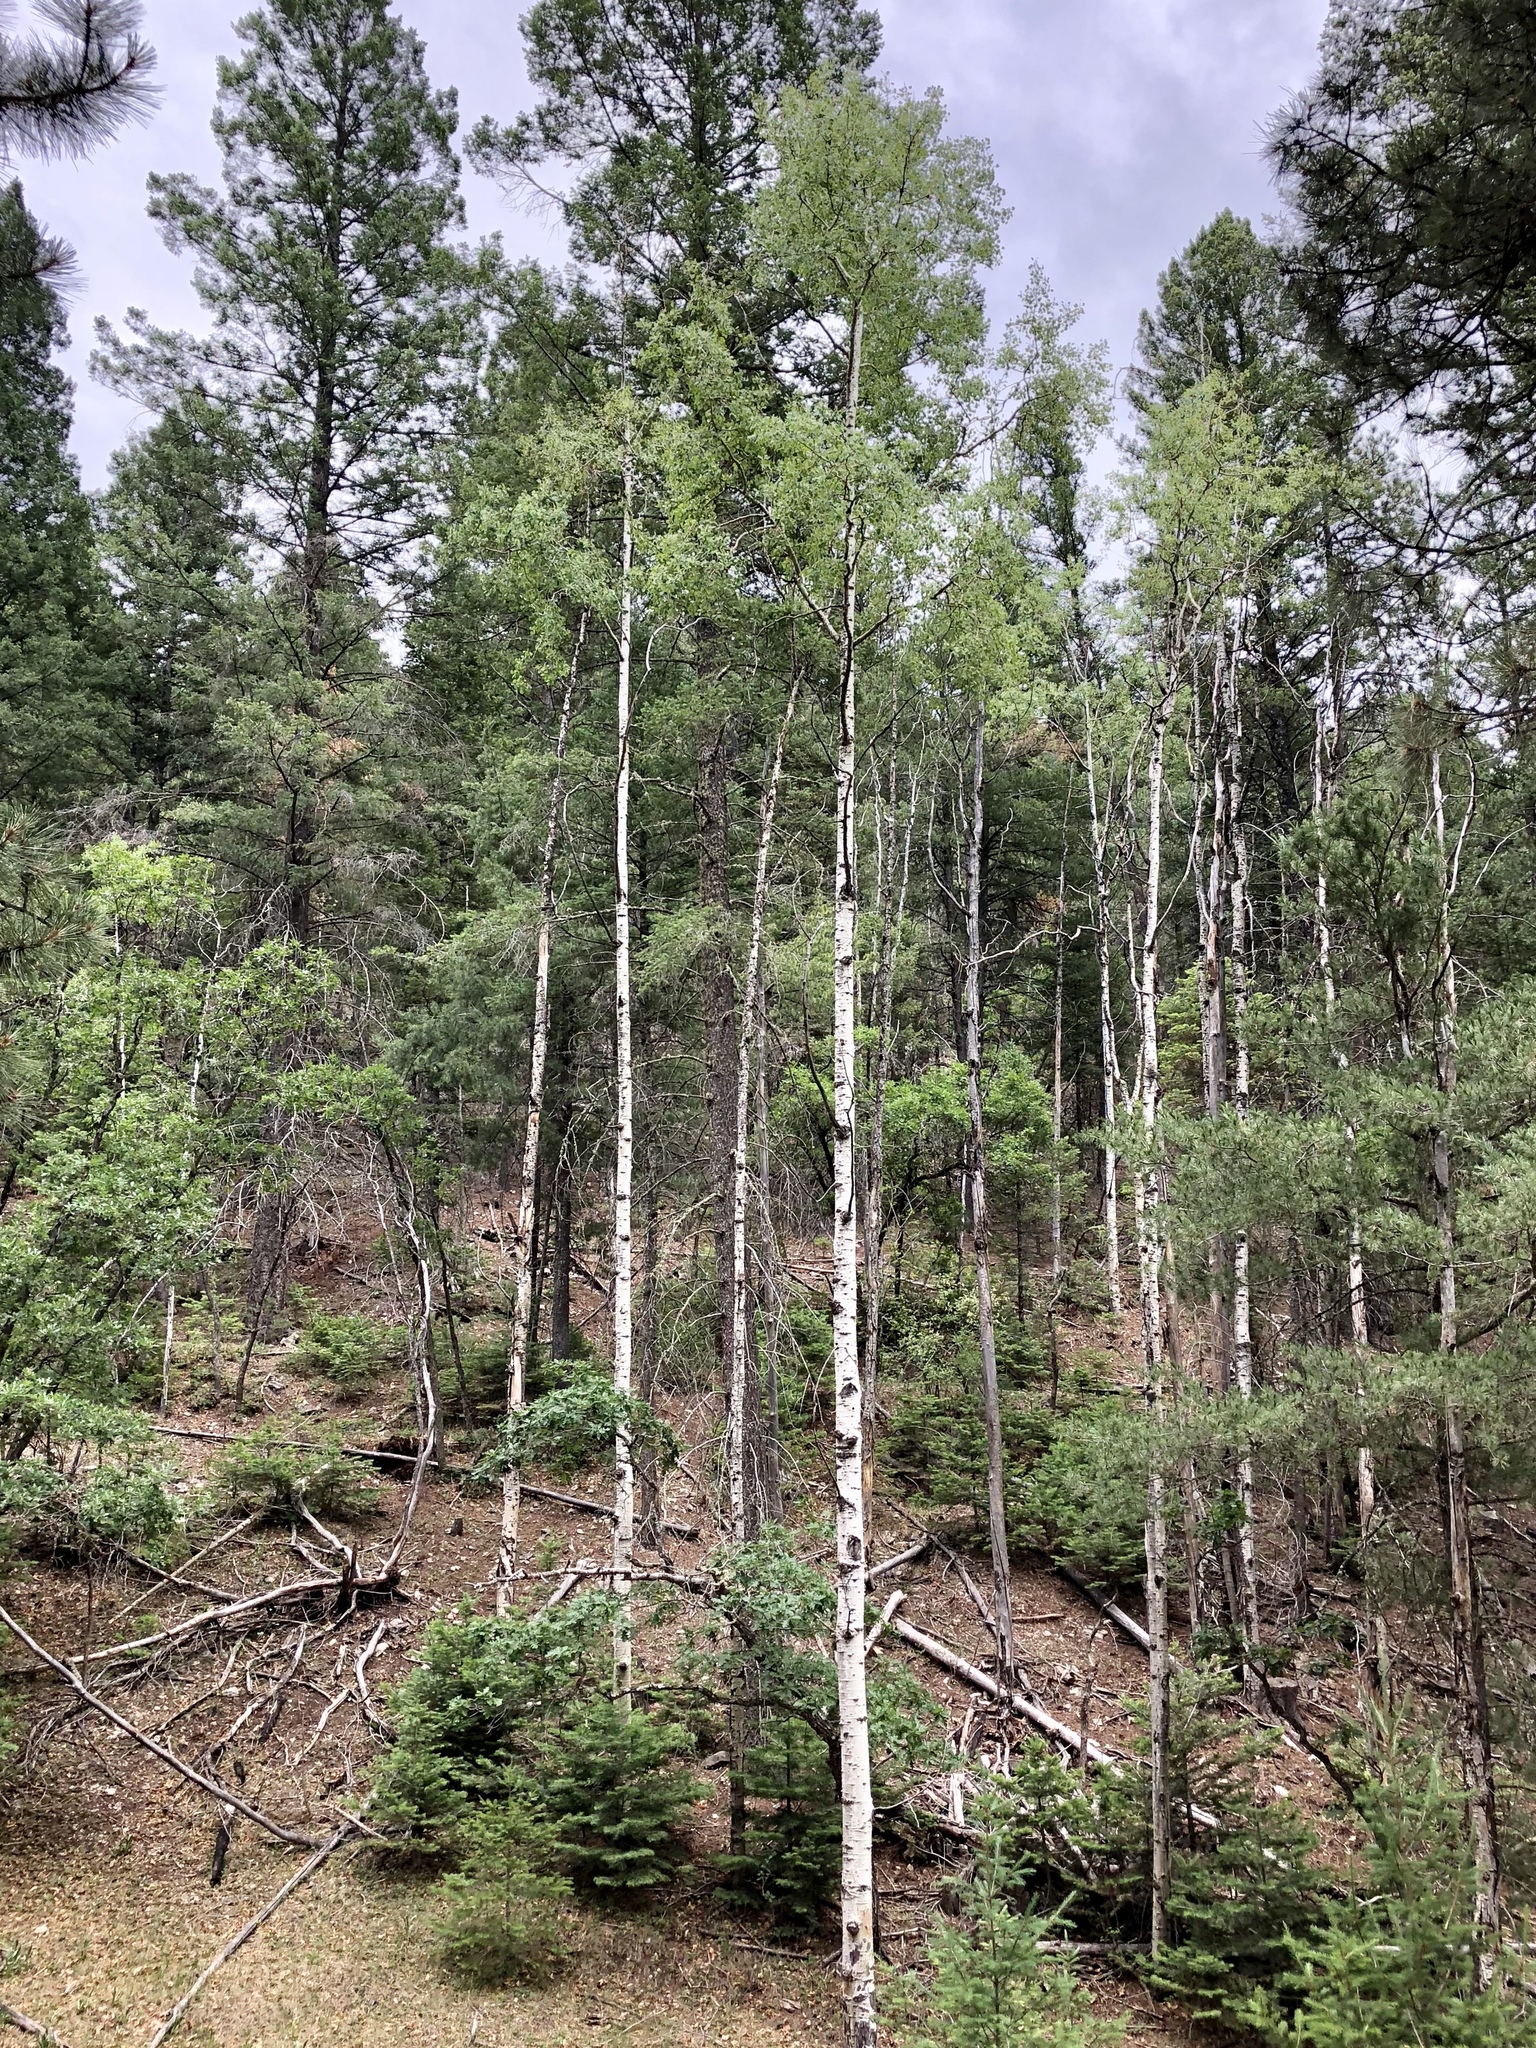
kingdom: Plantae
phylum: Tracheophyta
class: Magnoliopsida
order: Malpighiales
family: Salicaceae
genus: Populus
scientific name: Populus tremuloides
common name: Quaking aspen
